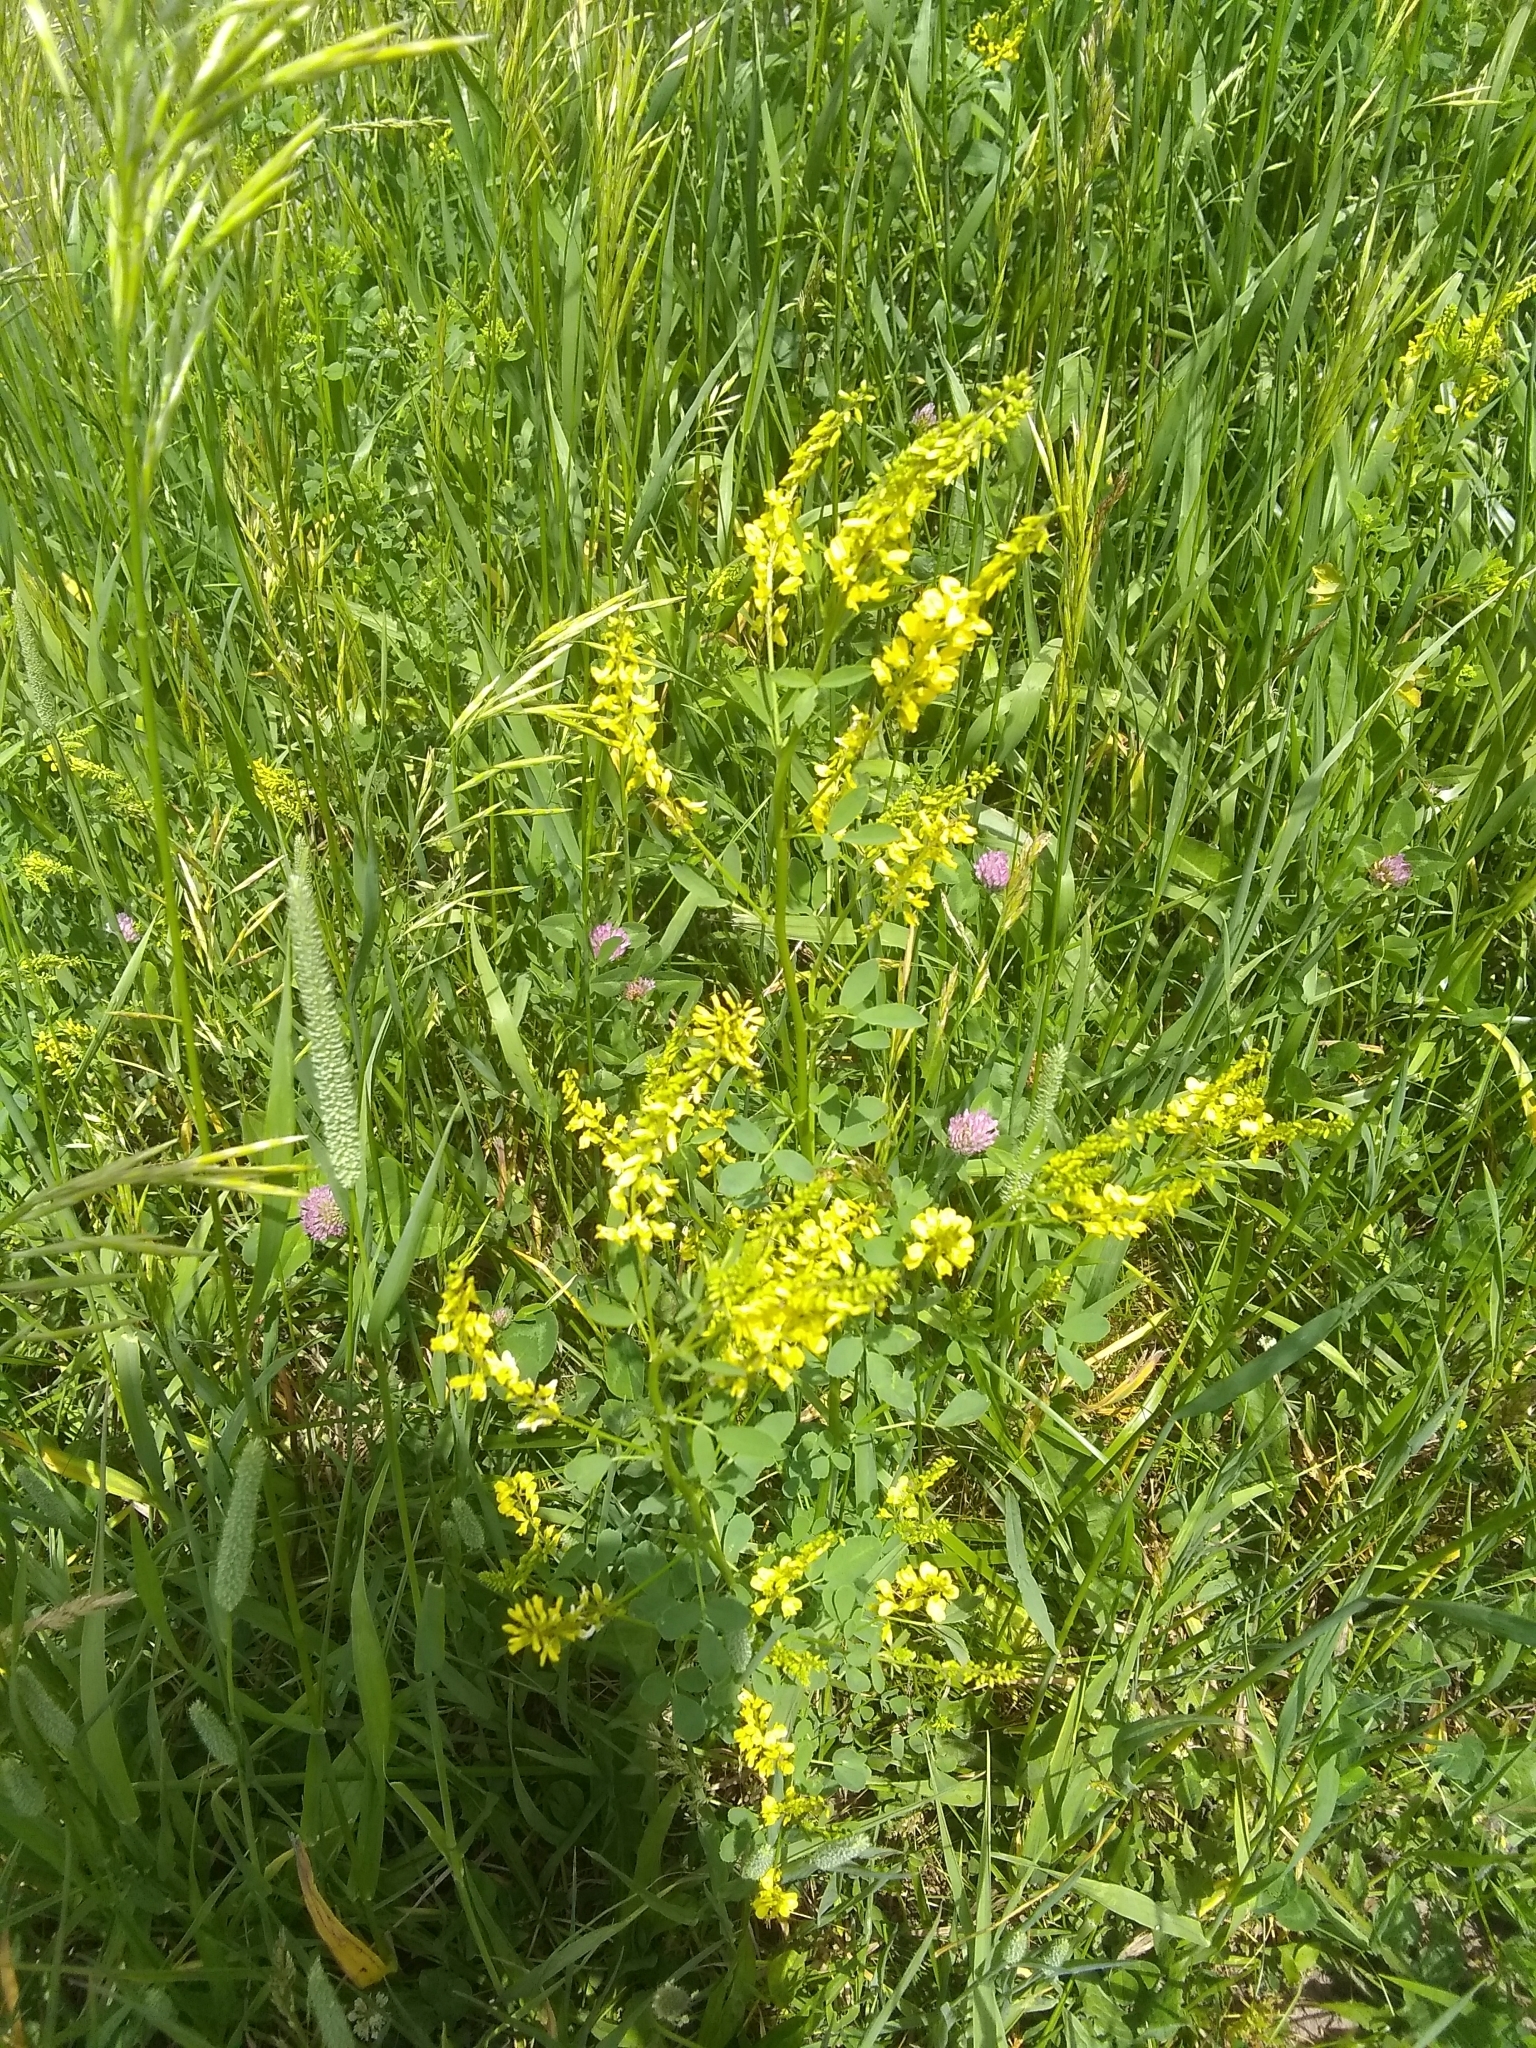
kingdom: Plantae
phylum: Tracheophyta
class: Magnoliopsida
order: Fabales
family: Fabaceae
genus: Melilotus
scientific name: Melilotus officinalis
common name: Sweetclover
